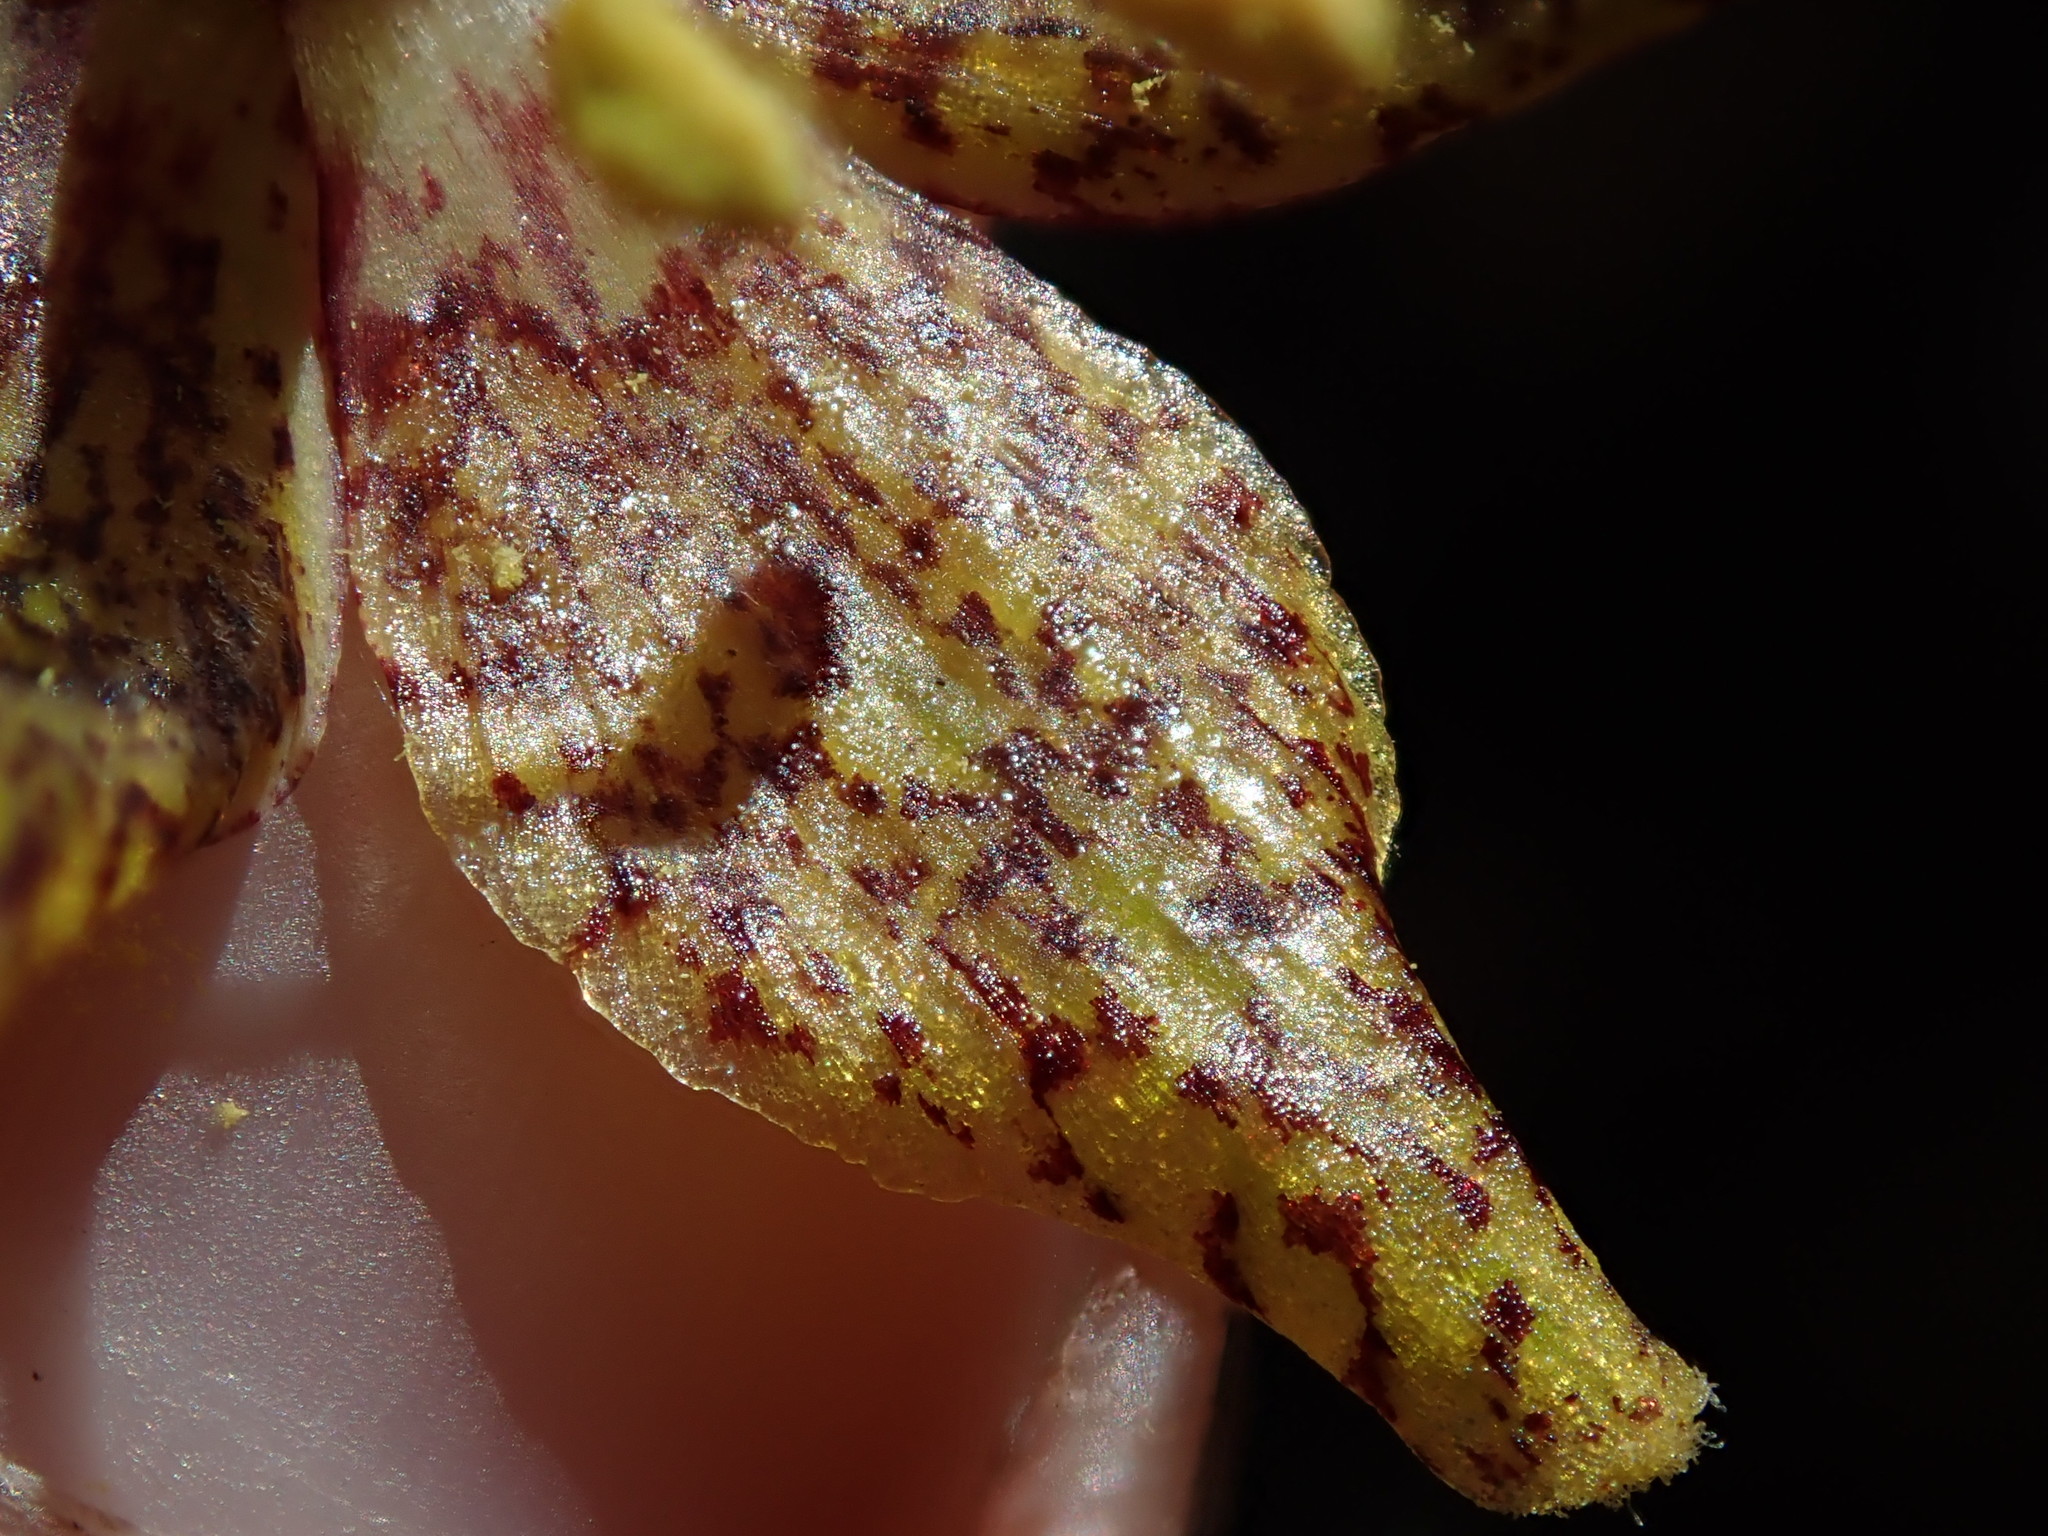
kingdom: Plantae
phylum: Tracheophyta
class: Liliopsida
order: Liliales
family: Liliaceae
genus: Fritillaria
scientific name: Fritillaria atropurpurea
